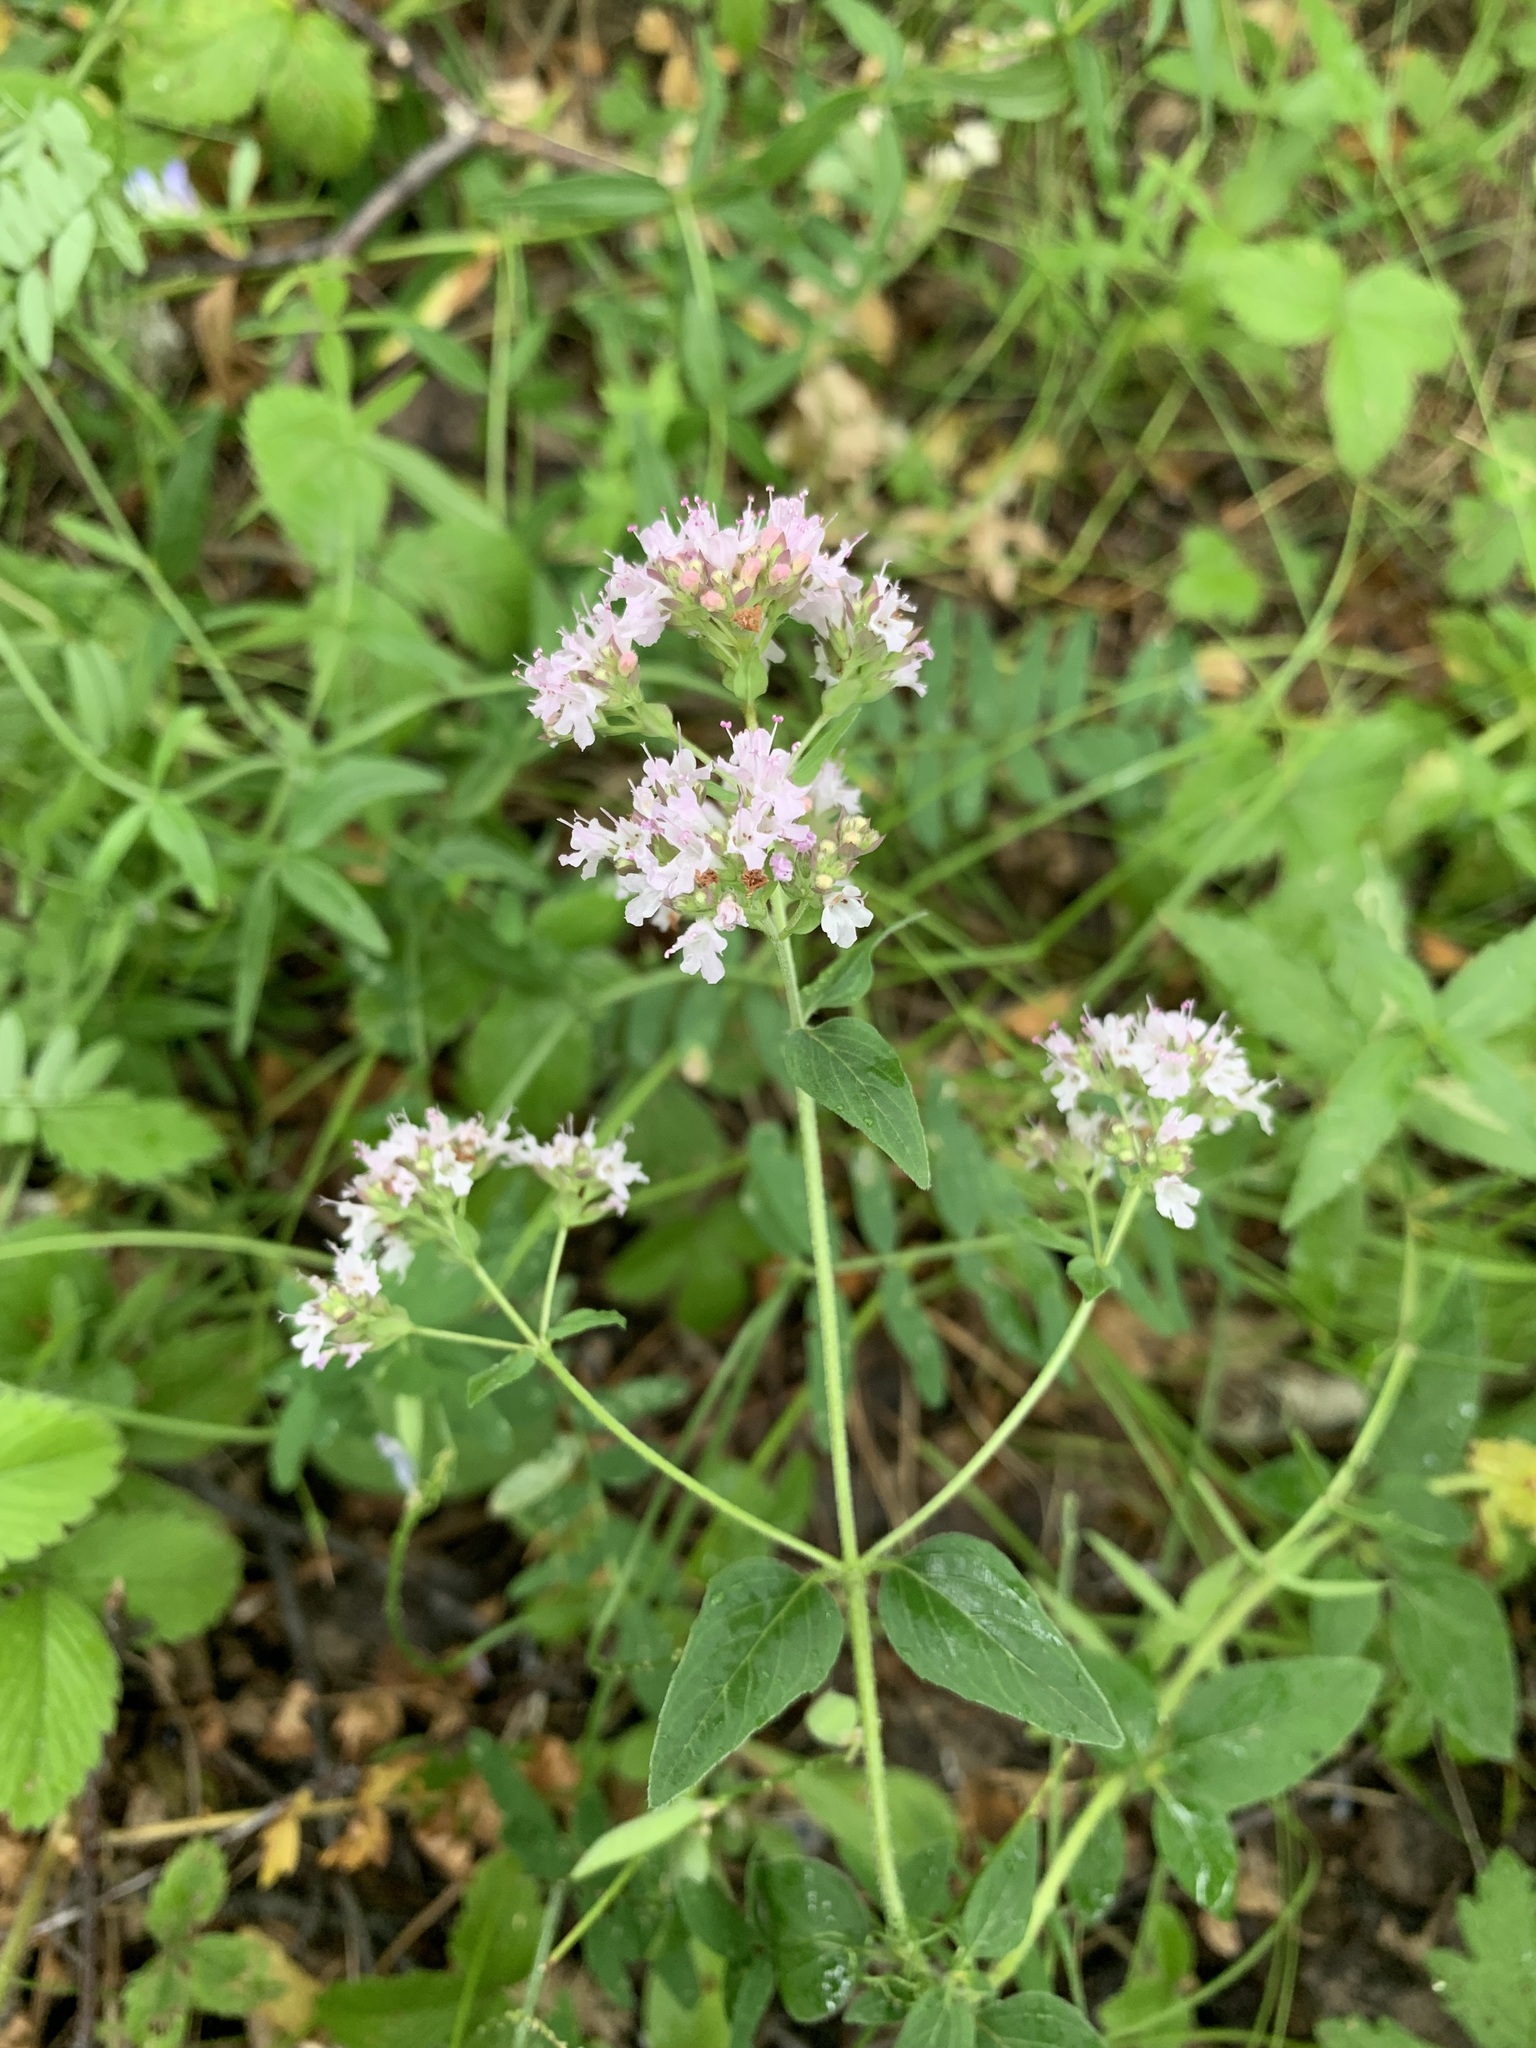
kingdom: Plantae
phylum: Tracheophyta
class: Magnoliopsida
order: Lamiales
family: Lamiaceae
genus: Origanum
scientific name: Origanum vulgare
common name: Wild marjoram
